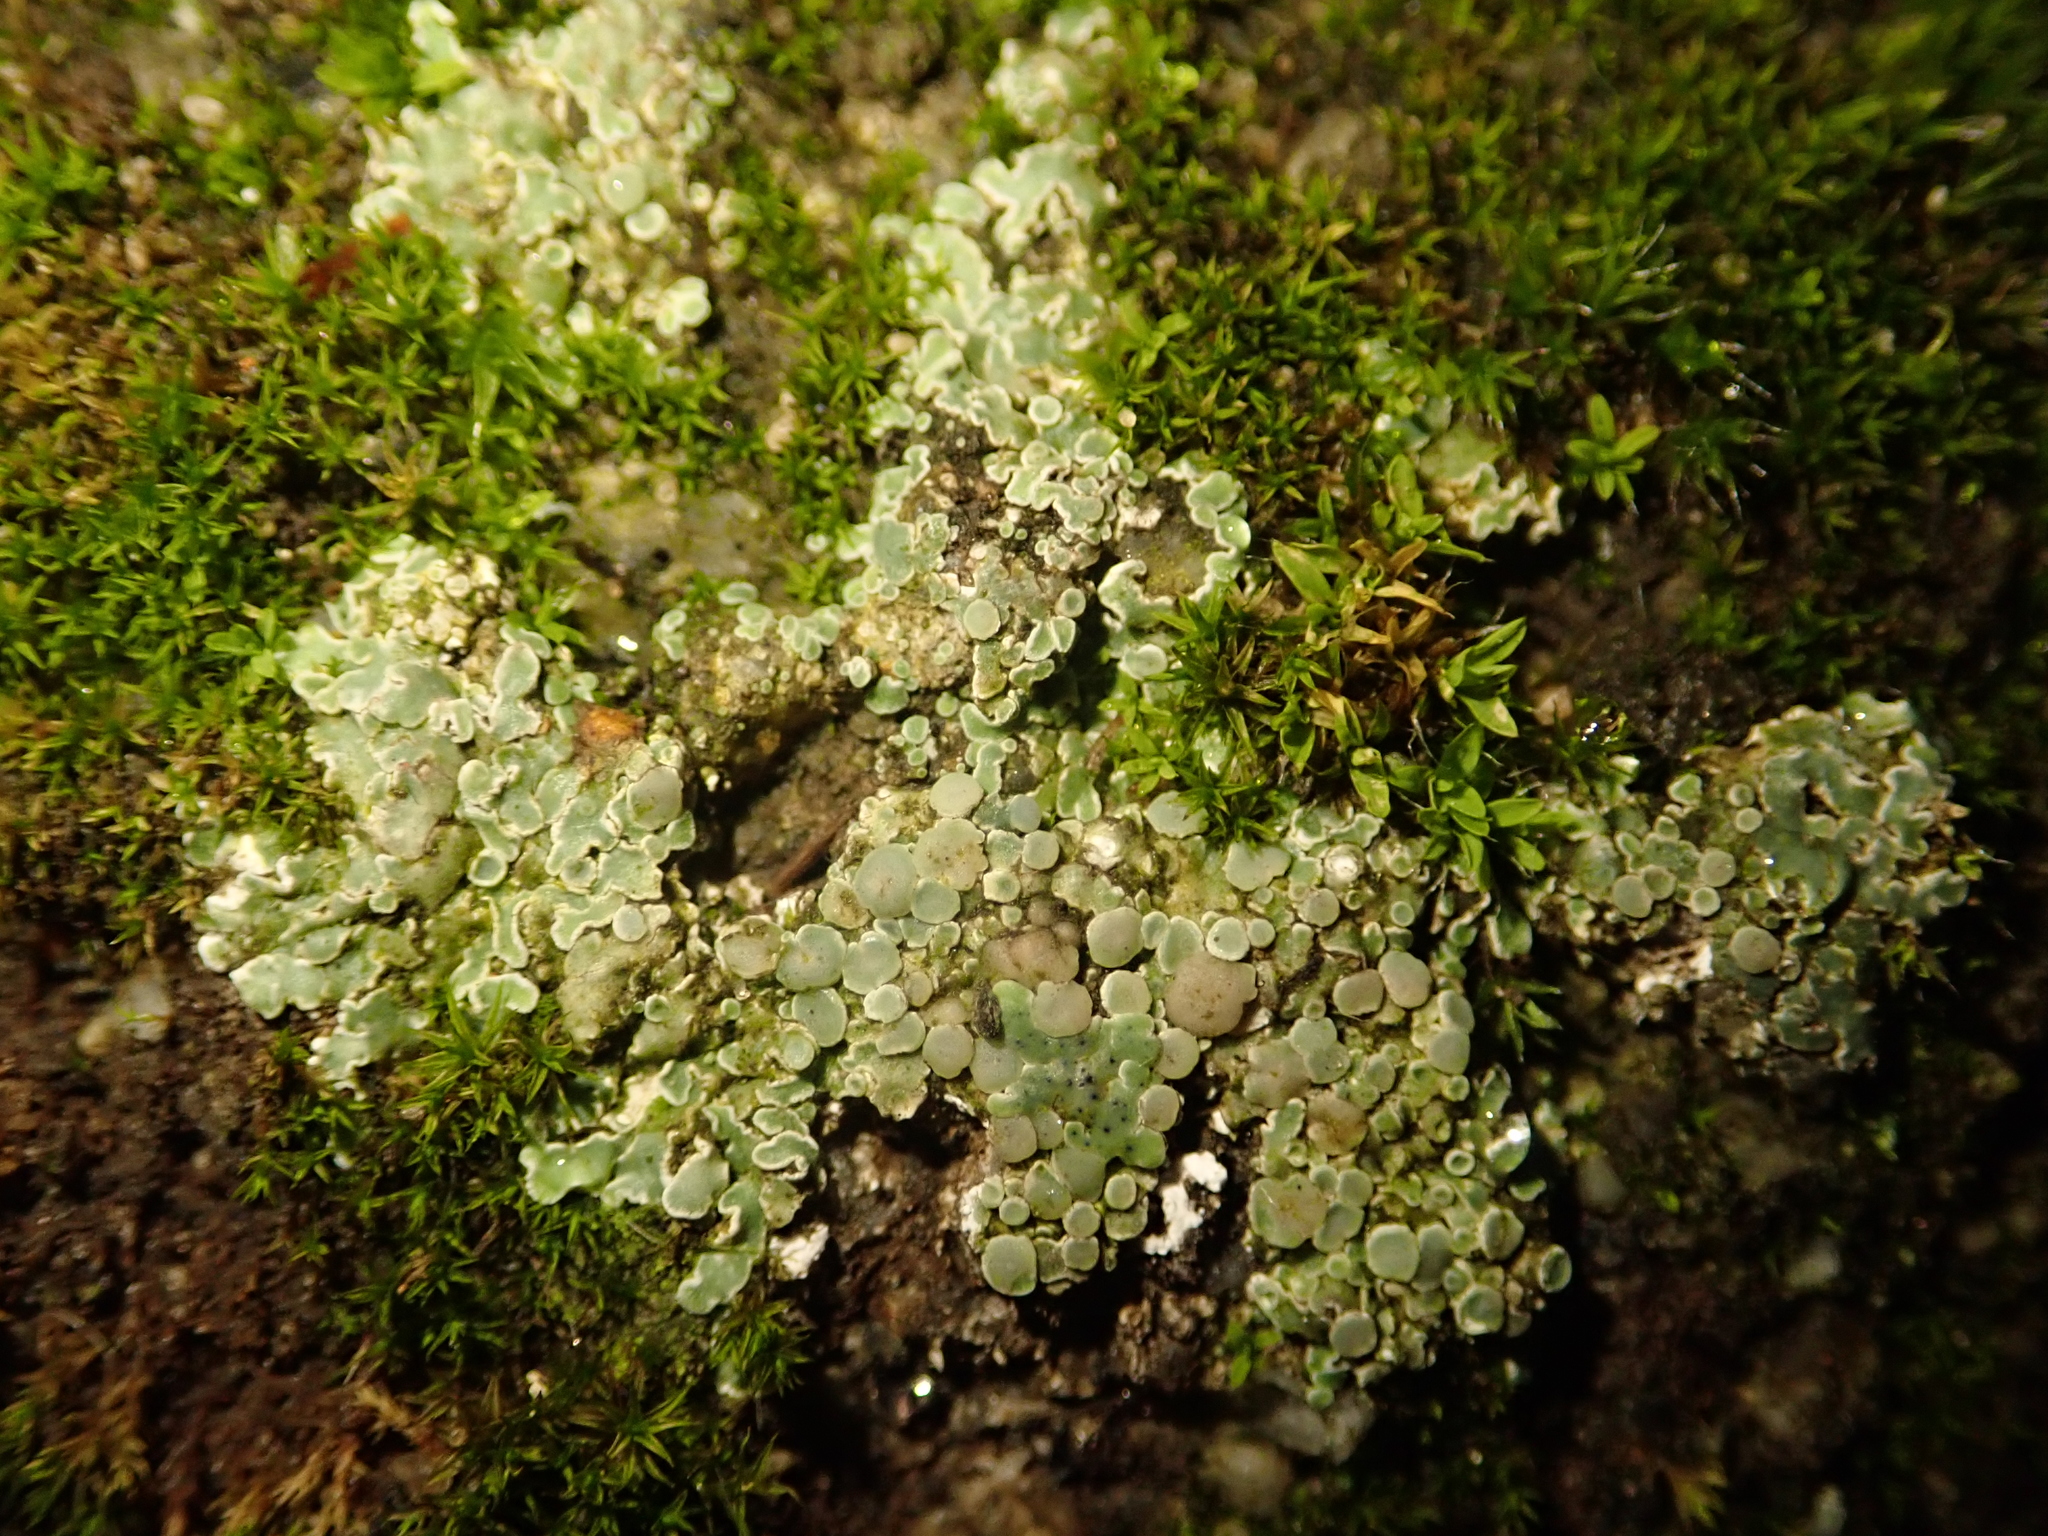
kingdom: Fungi
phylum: Ascomycota
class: Lecanoromycetes
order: Lecanorales
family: Lecanoraceae
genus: Protoparmeliopsis
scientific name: Protoparmeliopsis muralis
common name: Stonewall rim lichen
